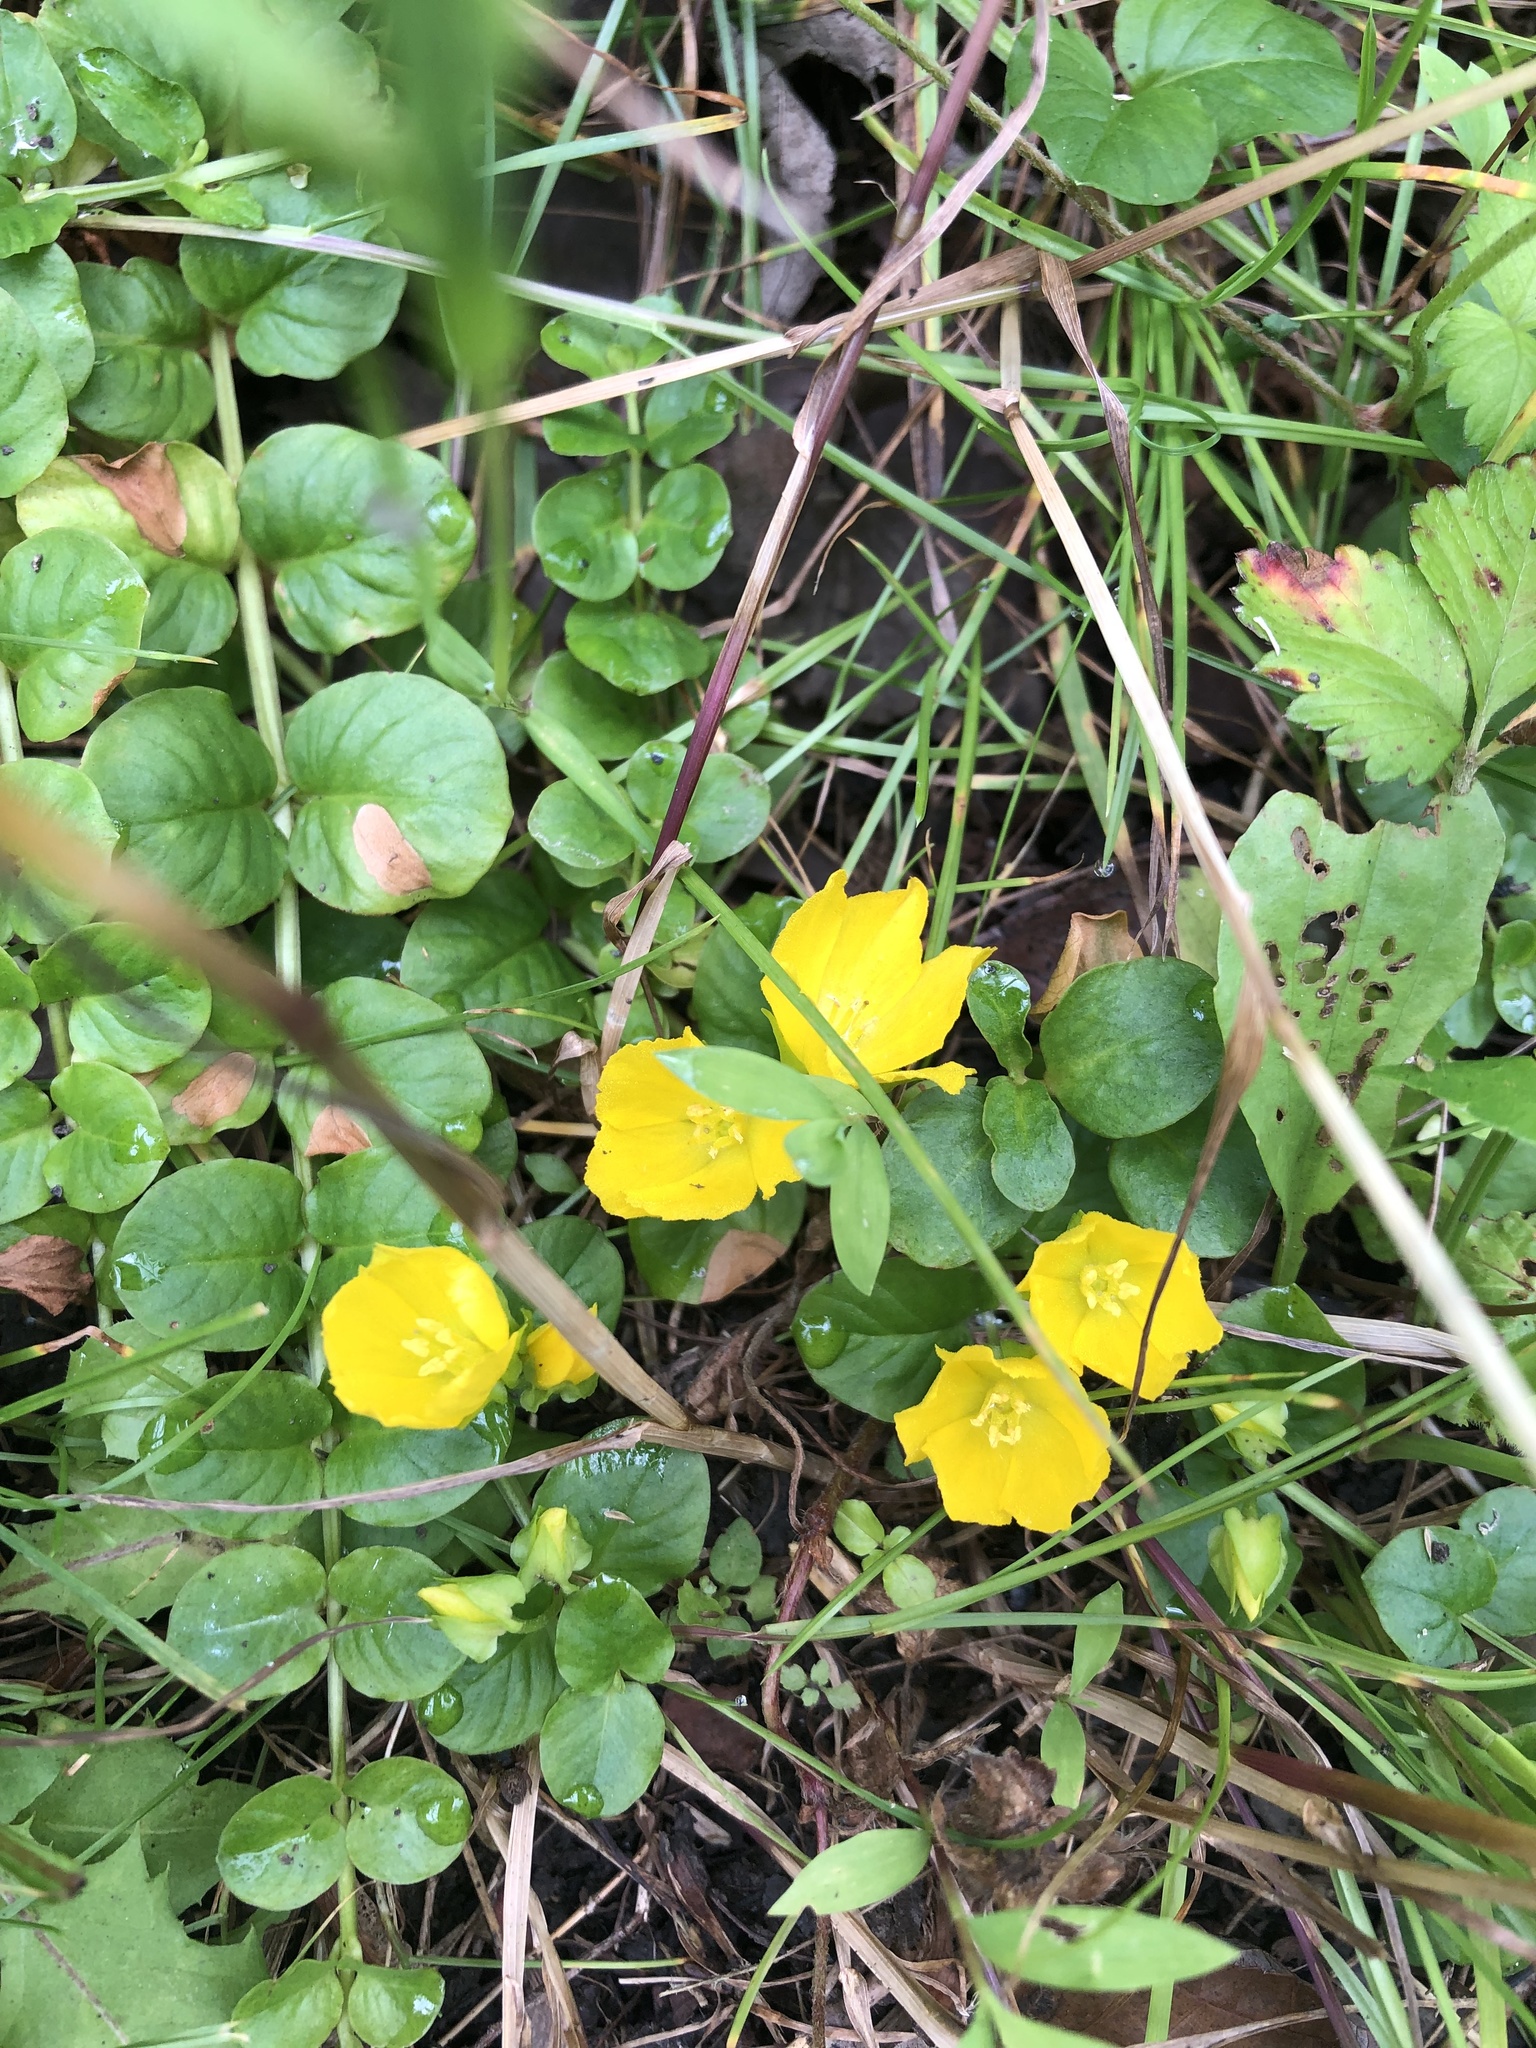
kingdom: Plantae
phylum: Tracheophyta
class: Magnoliopsida
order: Ericales
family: Primulaceae
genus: Lysimachia
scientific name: Lysimachia nummularia
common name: Moneywort
